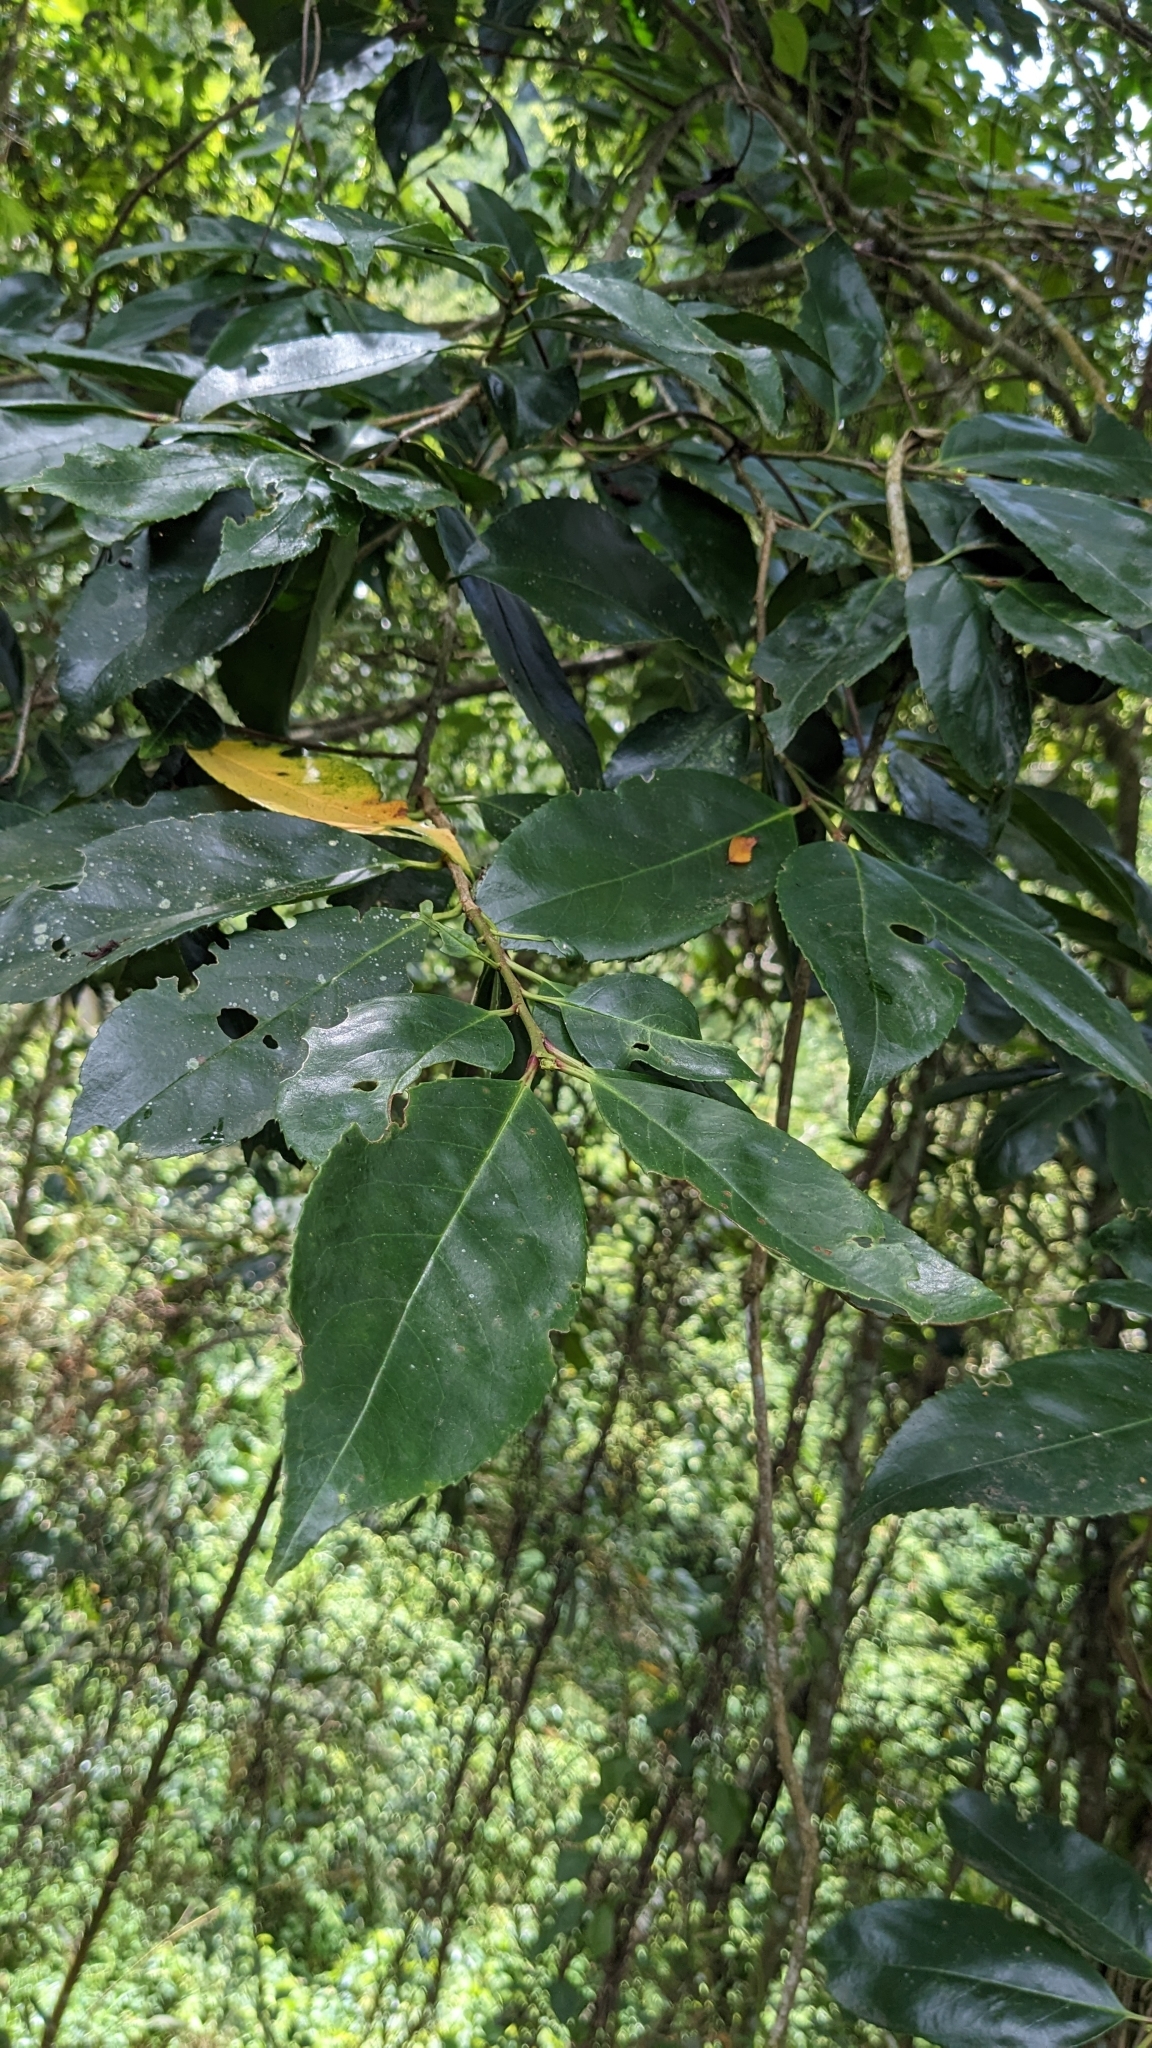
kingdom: Plantae
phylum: Tracheophyta
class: Magnoliopsida
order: Rosales
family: Rosaceae
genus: Prunus
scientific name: Prunus zippeliana
